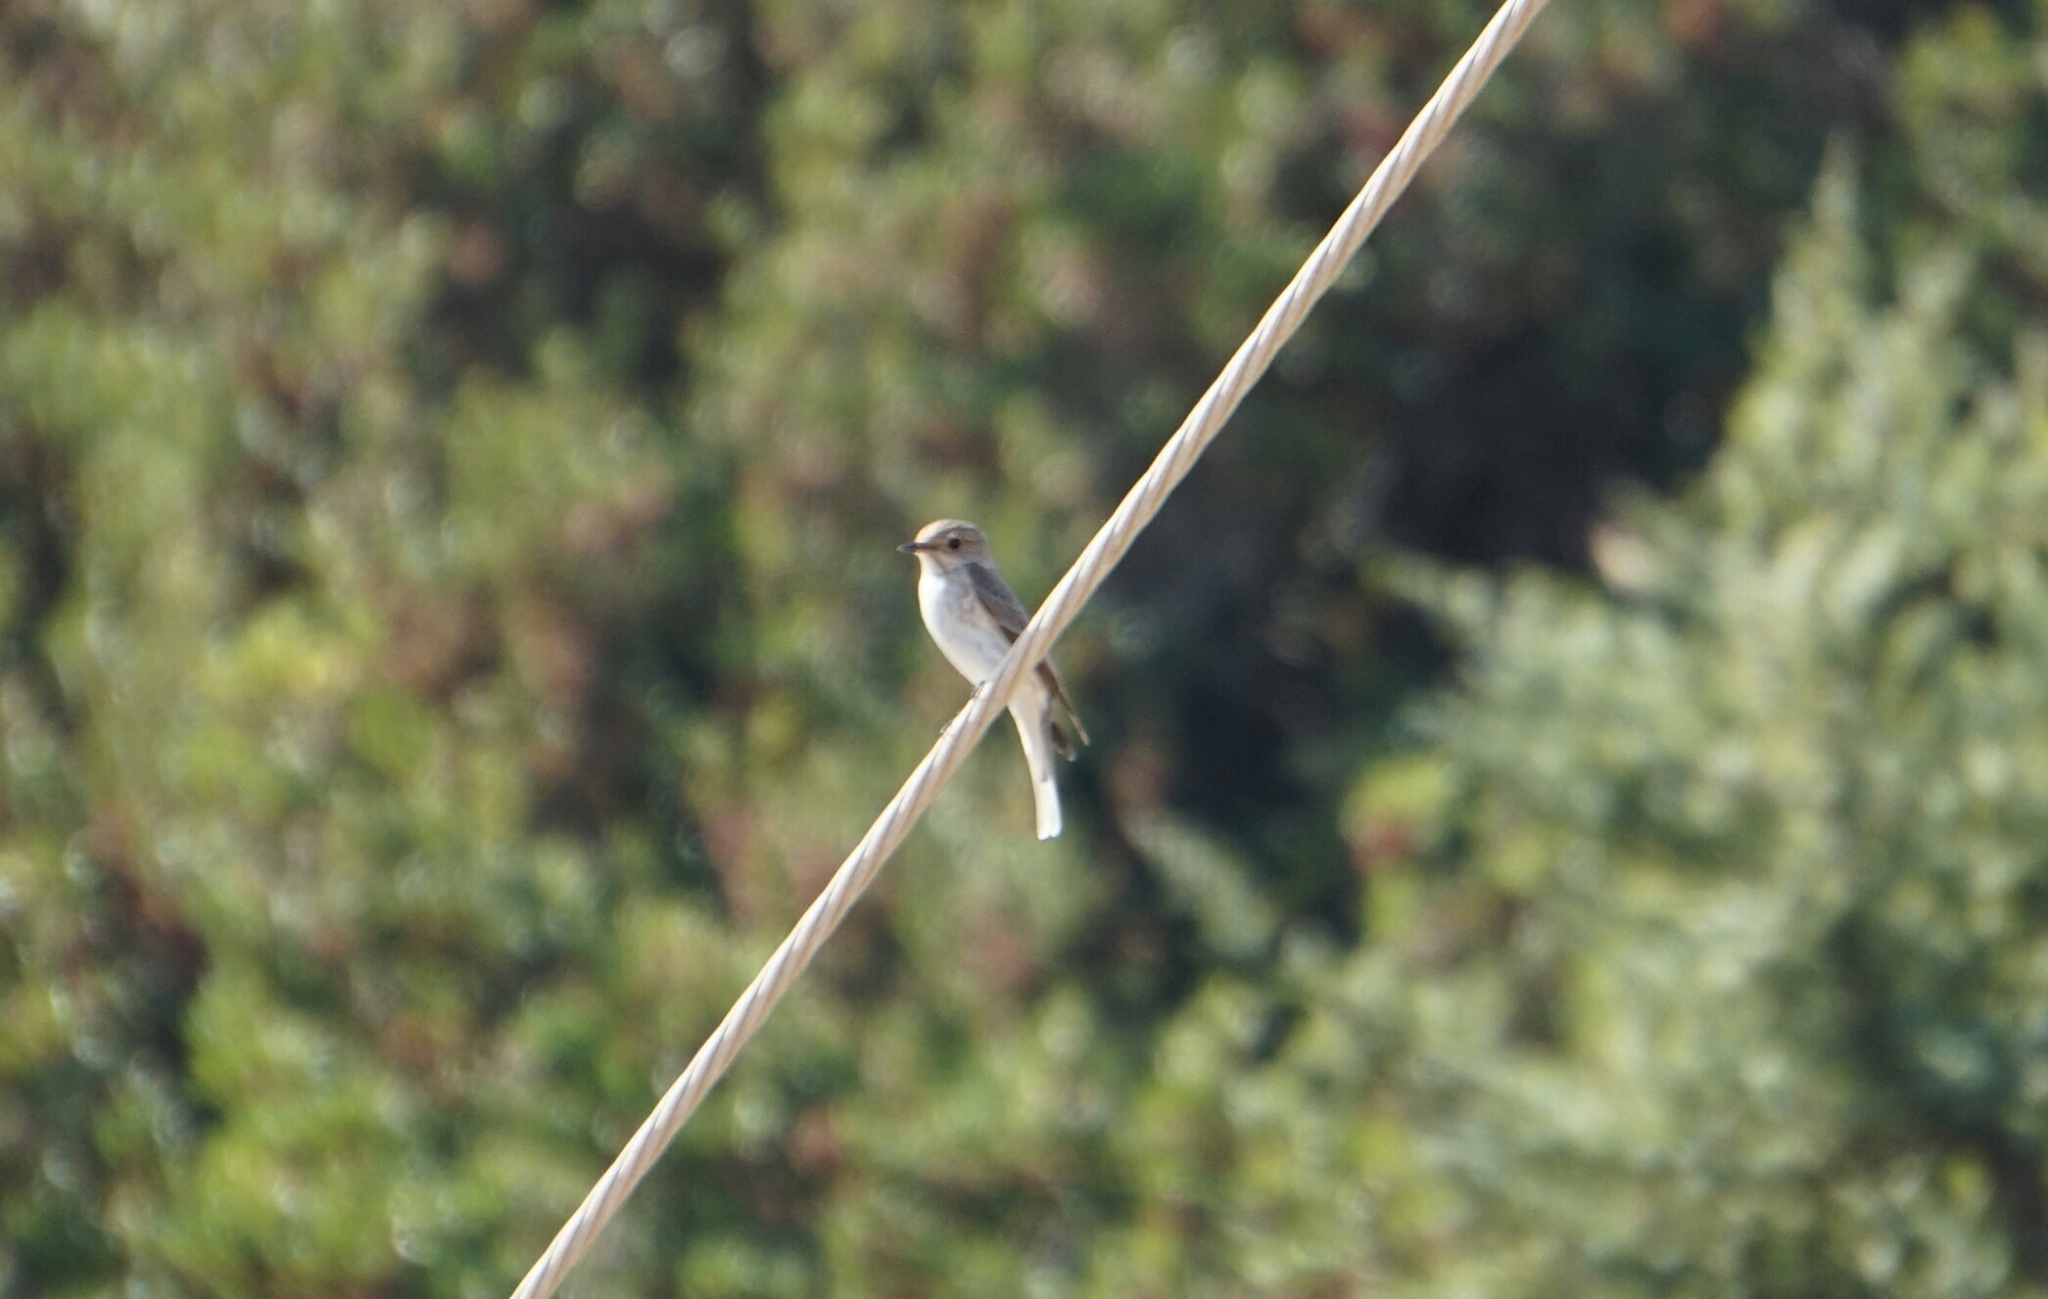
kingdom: Animalia
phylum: Chordata
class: Aves
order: Passeriformes
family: Muscicapidae
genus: Muscicapa
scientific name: Muscicapa striata
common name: Spotted flycatcher
